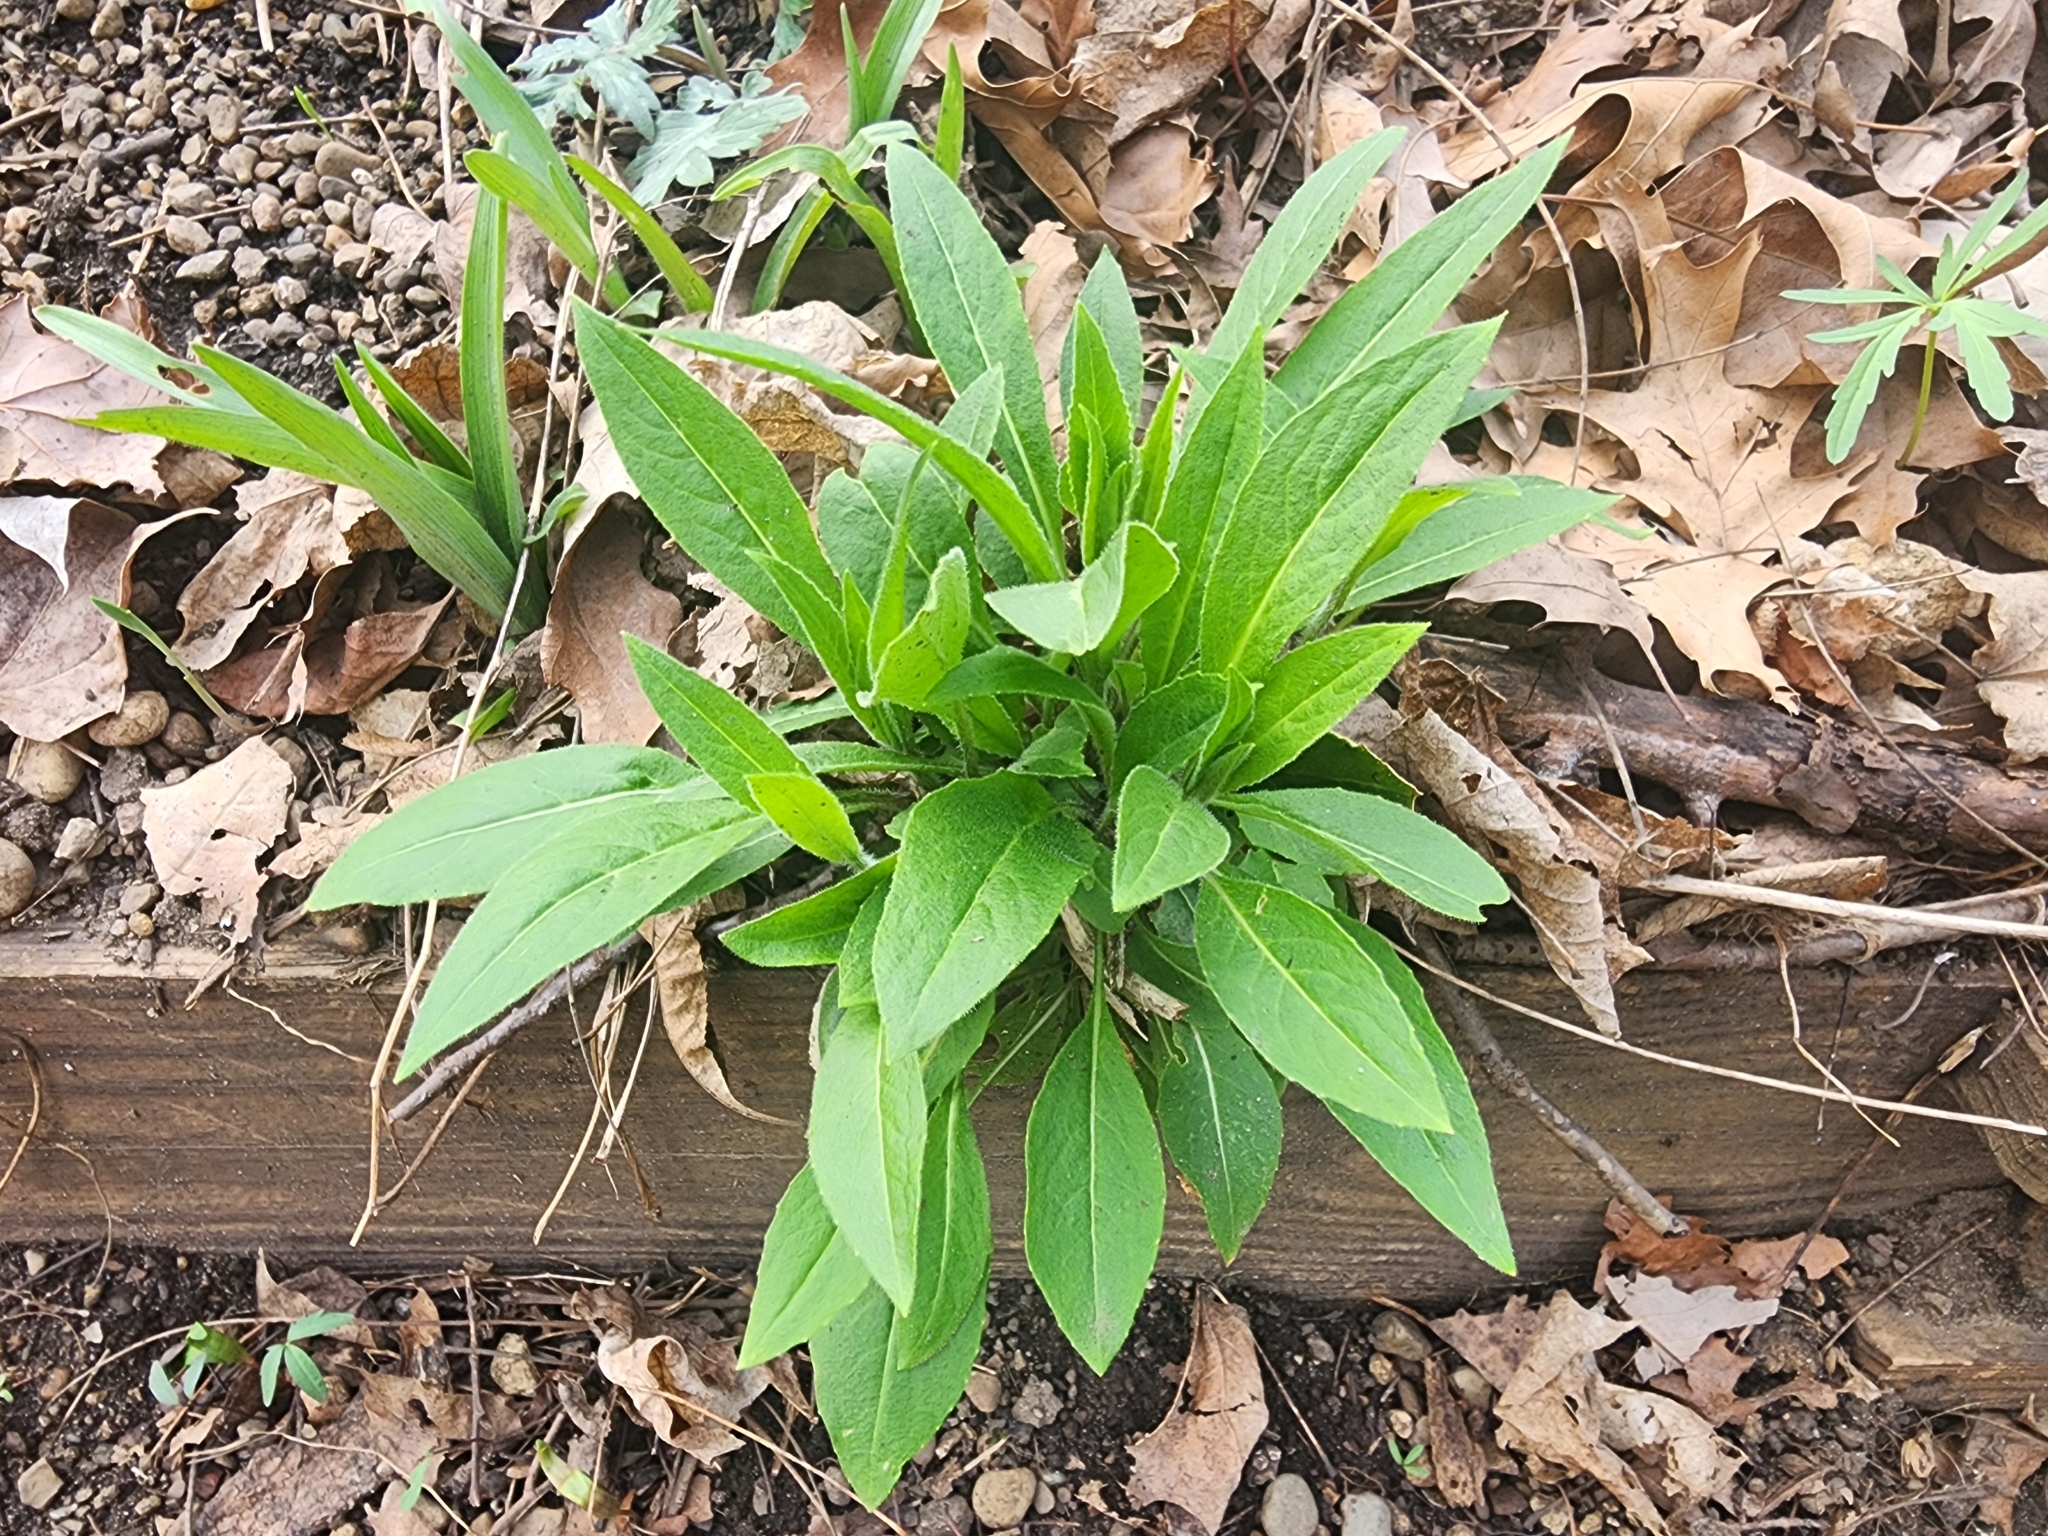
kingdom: Plantae
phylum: Tracheophyta
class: Magnoliopsida
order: Brassicales
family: Brassicaceae
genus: Hesperis
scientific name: Hesperis matronalis
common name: Dame's-violet
